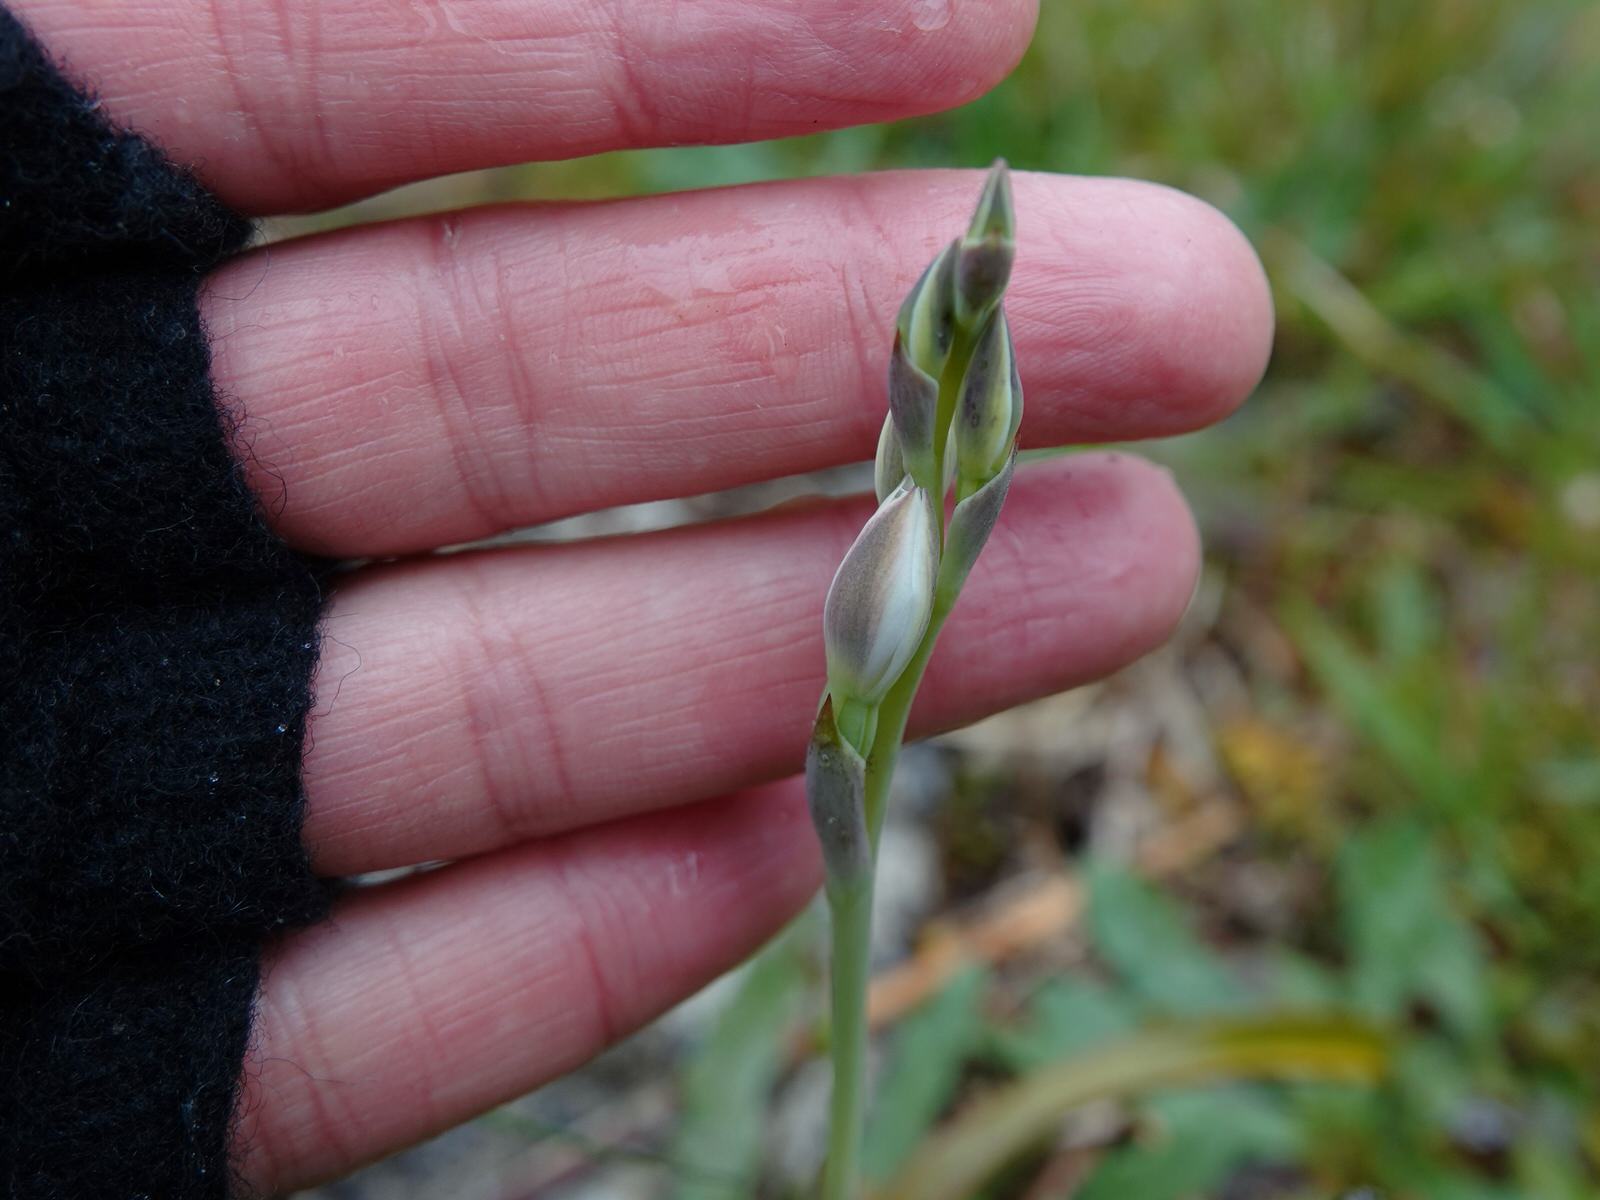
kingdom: Plantae
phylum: Tracheophyta
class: Liliopsida
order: Asparagales
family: Orchidaceae
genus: Thelymitra
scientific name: Thelymitra longifolia
